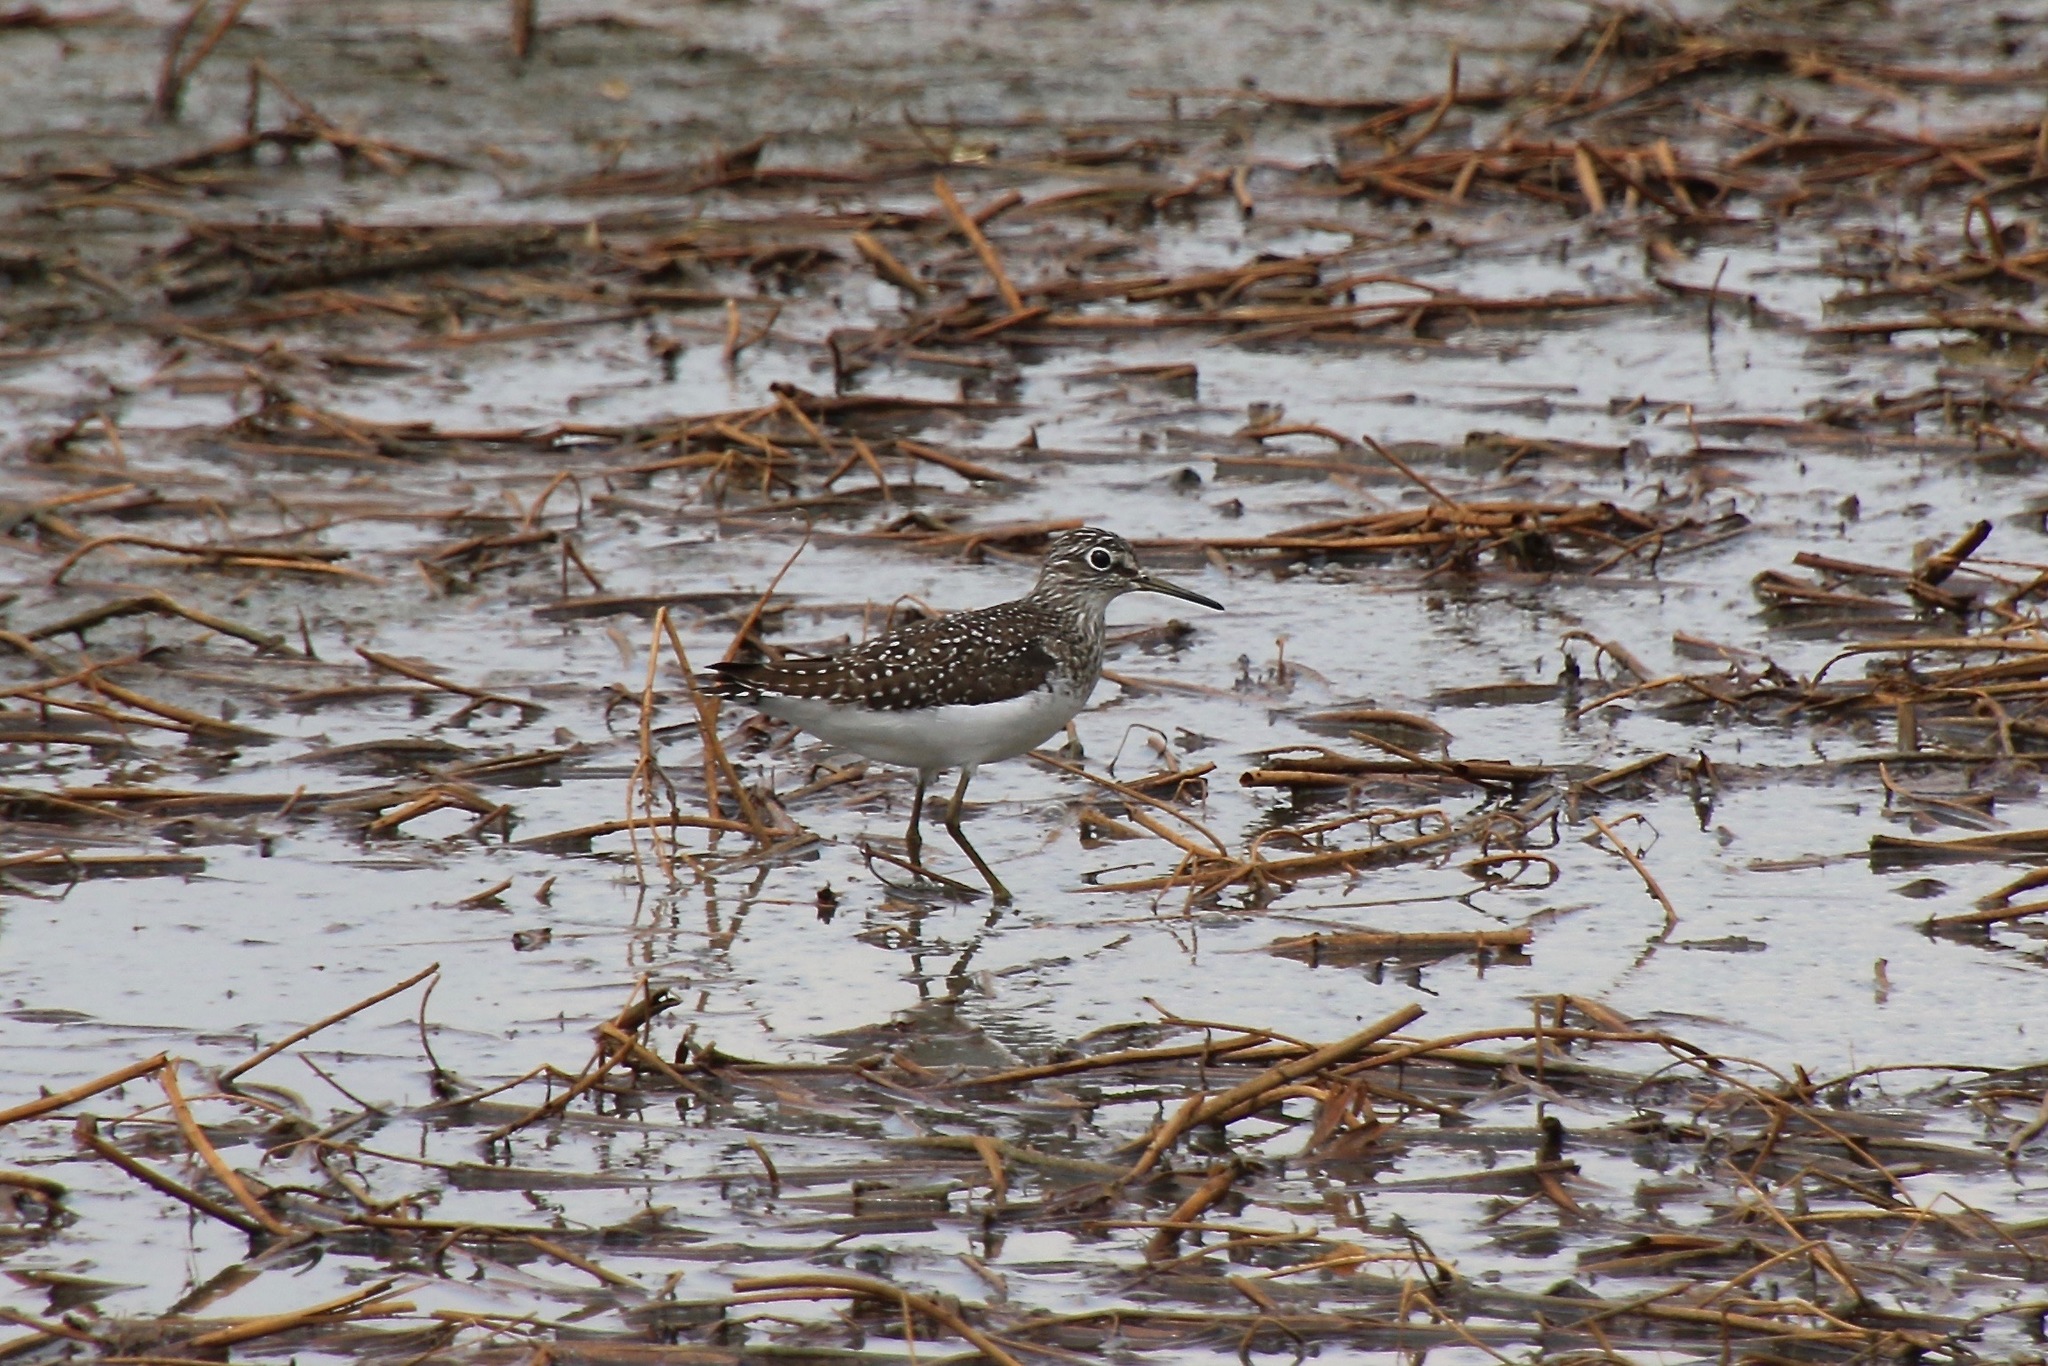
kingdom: Animalia
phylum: Chordata
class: Aves
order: Charadriiformes
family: Scolopacidae
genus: Tringa
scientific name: Tringa solitaria
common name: Solitary sandpiper
